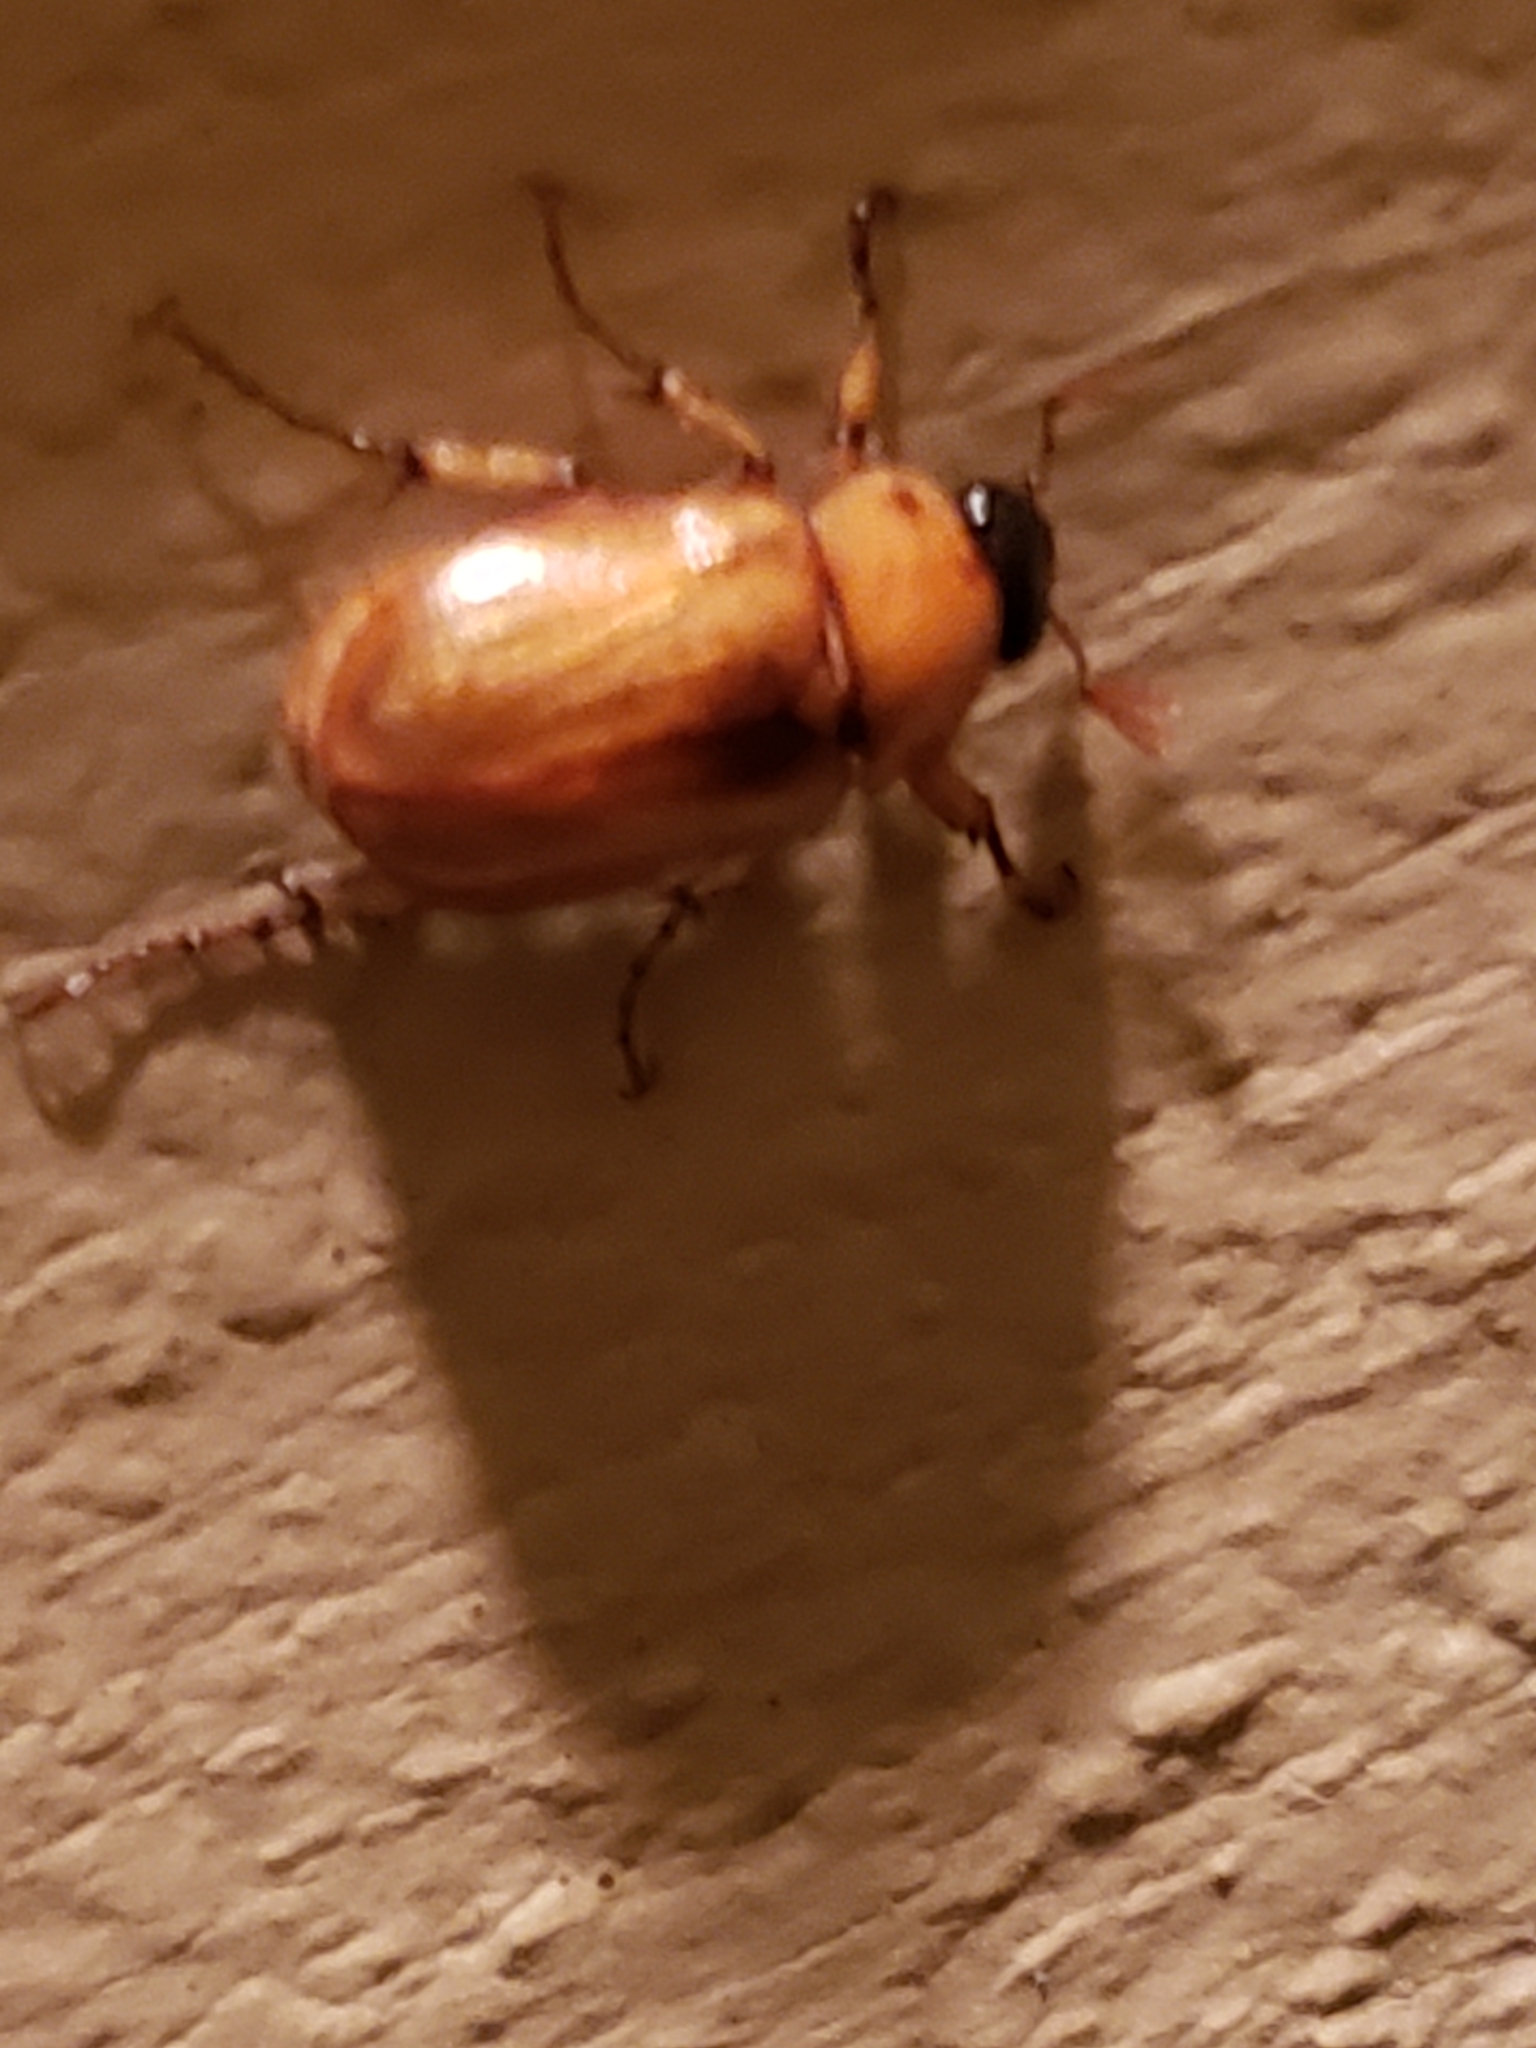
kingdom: Animalia
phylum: Arthropoda
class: Insecta
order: Coleoptera
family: Scarabaeidae
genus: Cyclocephala
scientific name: Cyclocephala lurida
